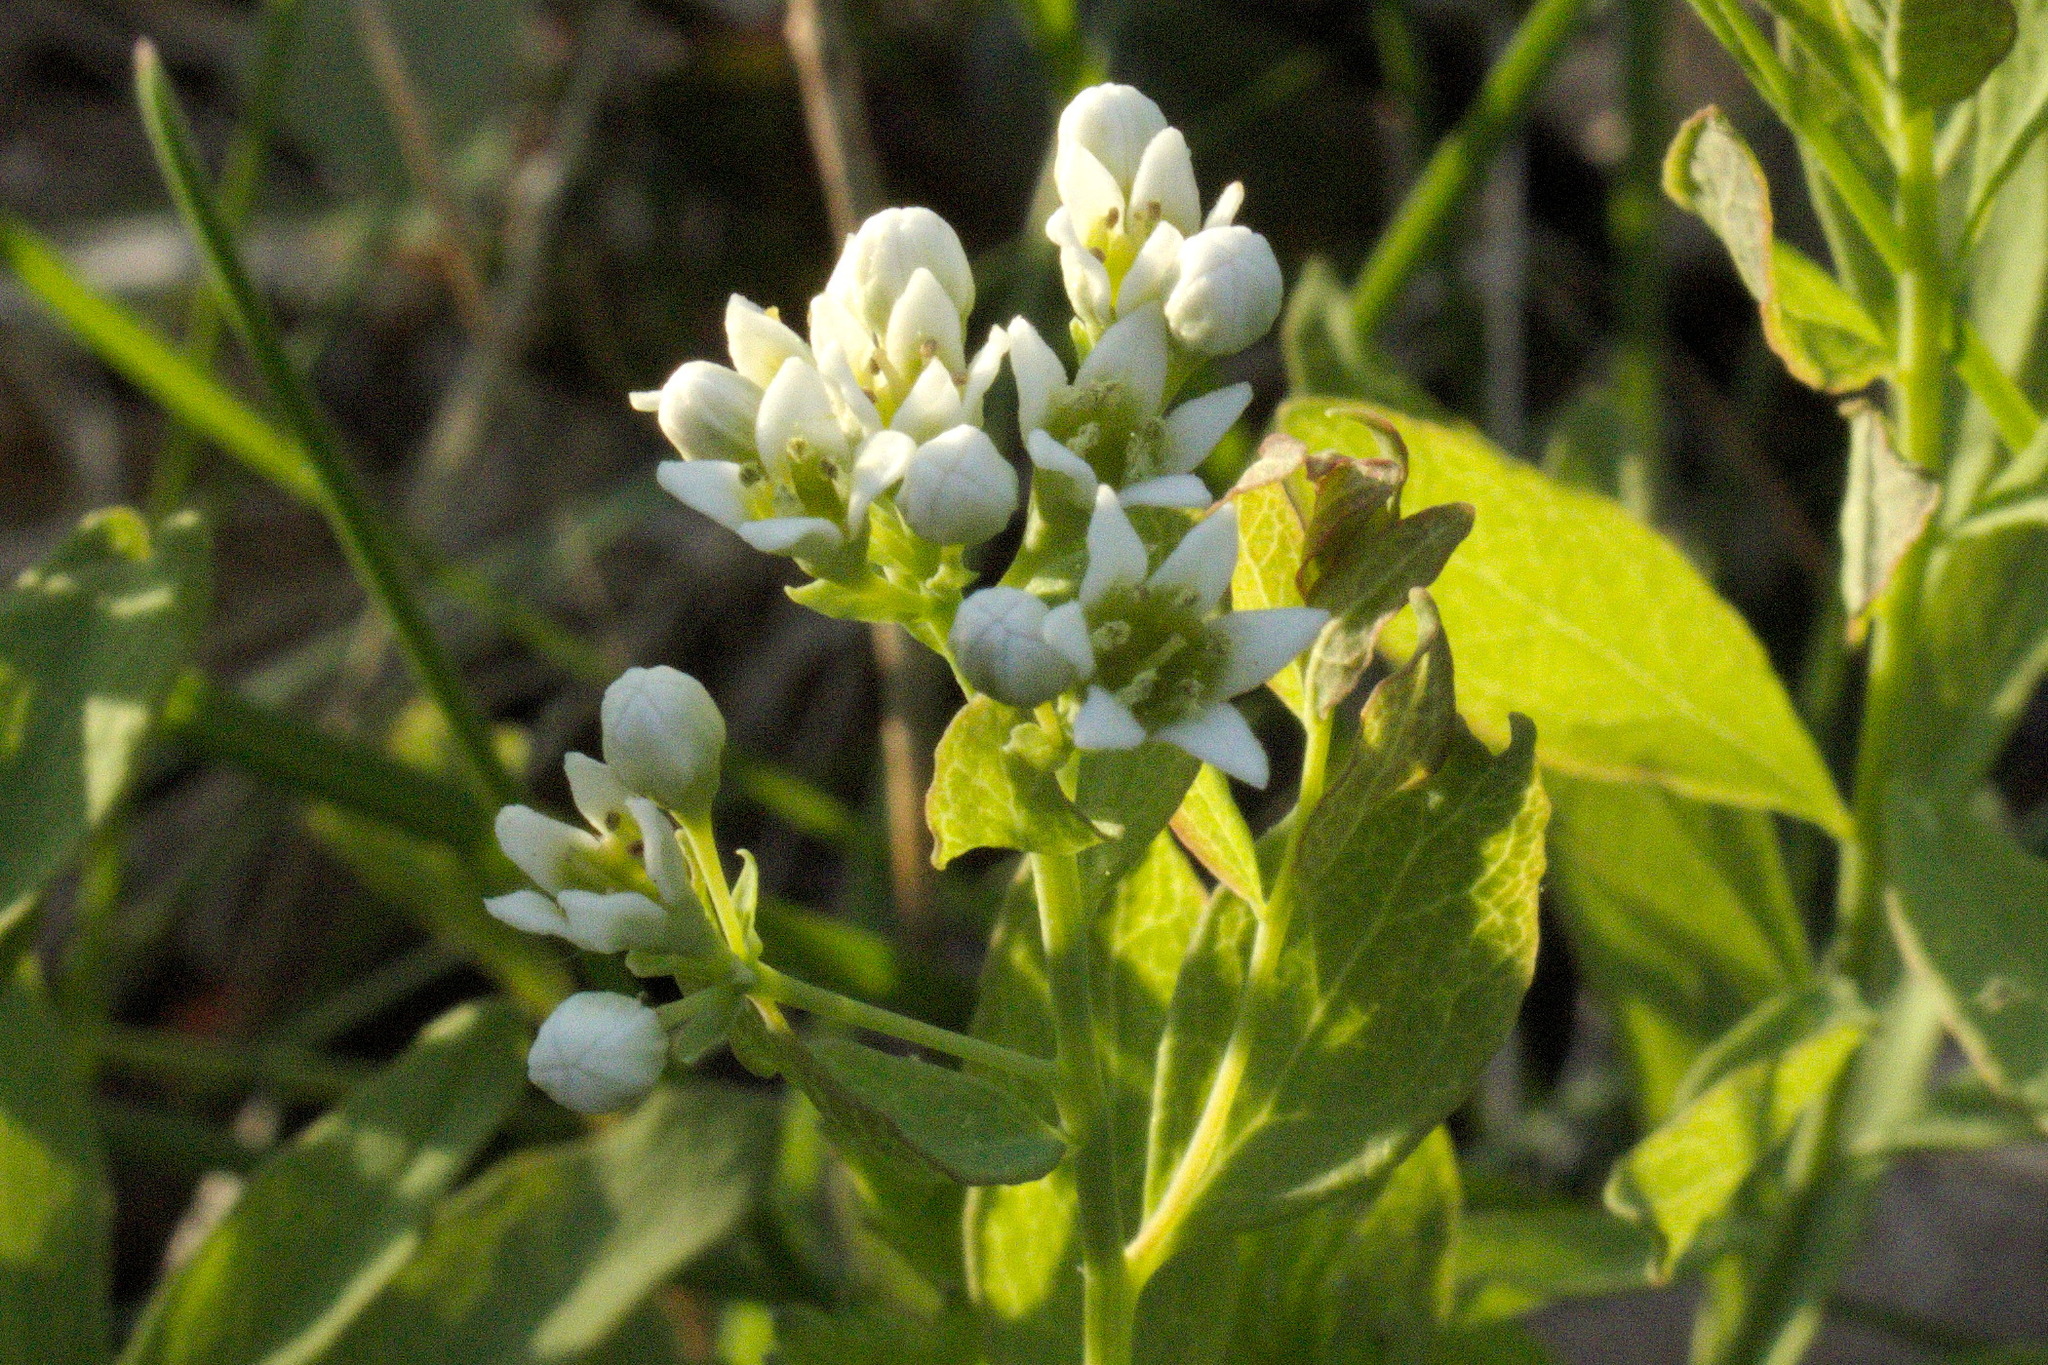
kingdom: Plantae
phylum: Tracheophyta
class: Magnoliopsida
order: Santalales
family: Comandraceae
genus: Comandra
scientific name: Comandra umbellata
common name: Bastard toadflax
